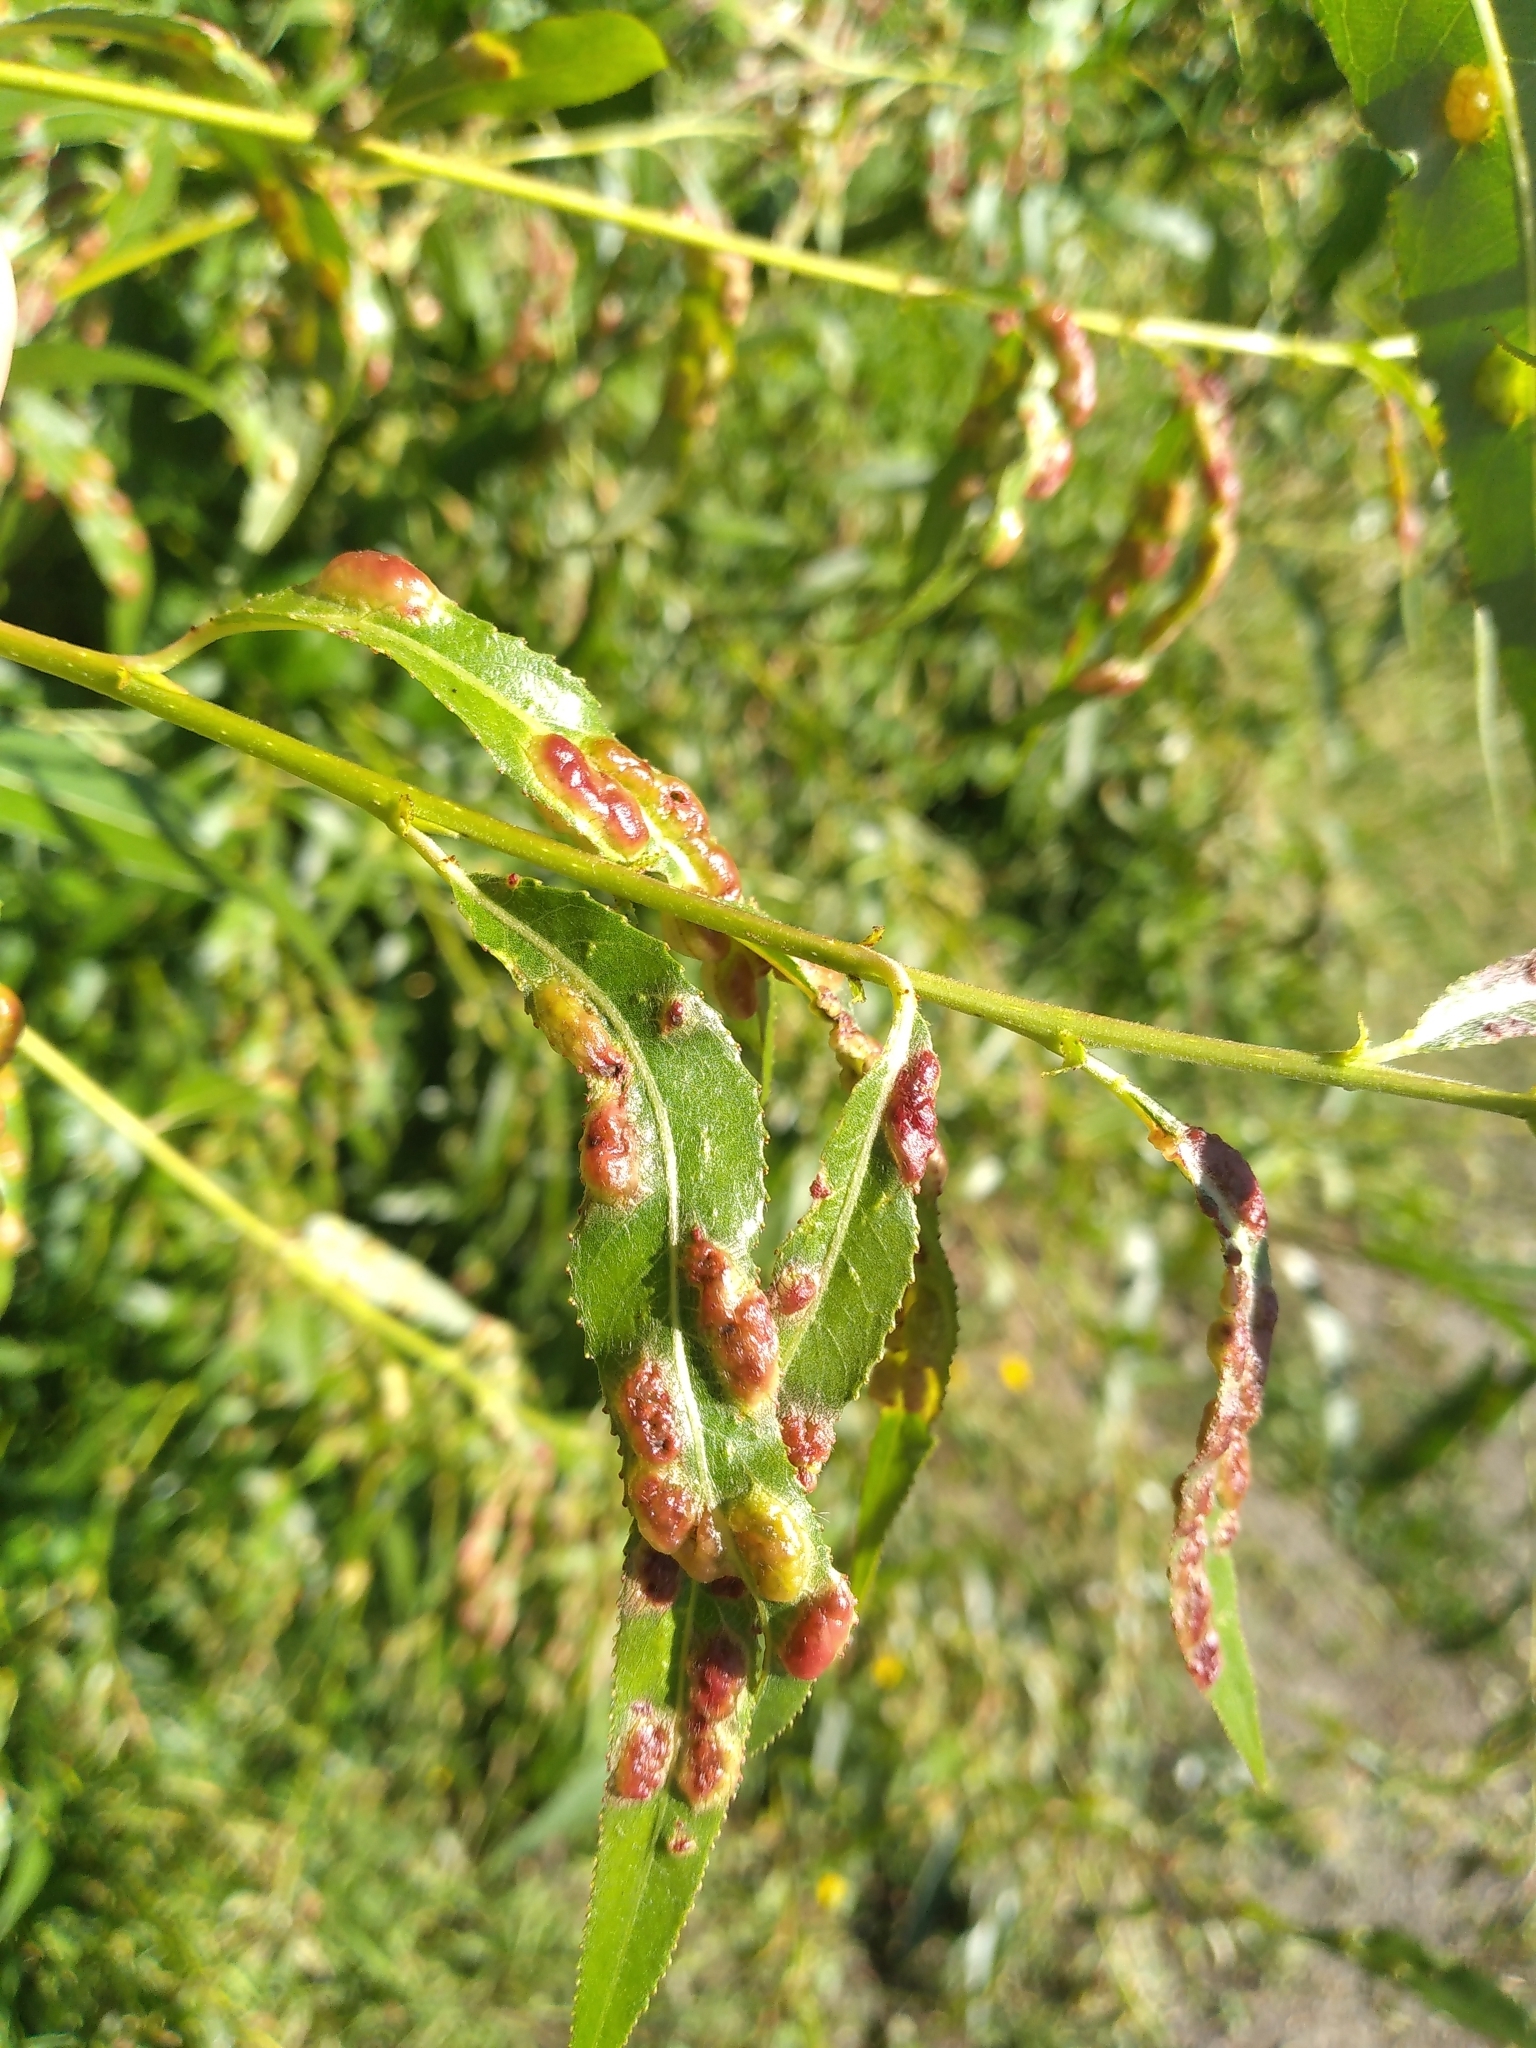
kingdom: Animalia
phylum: Arthropoda
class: Insecta
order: Hymenoptera
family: Tenthredinidae
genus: Pontania
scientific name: Pontania proxima
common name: Common sawfly
